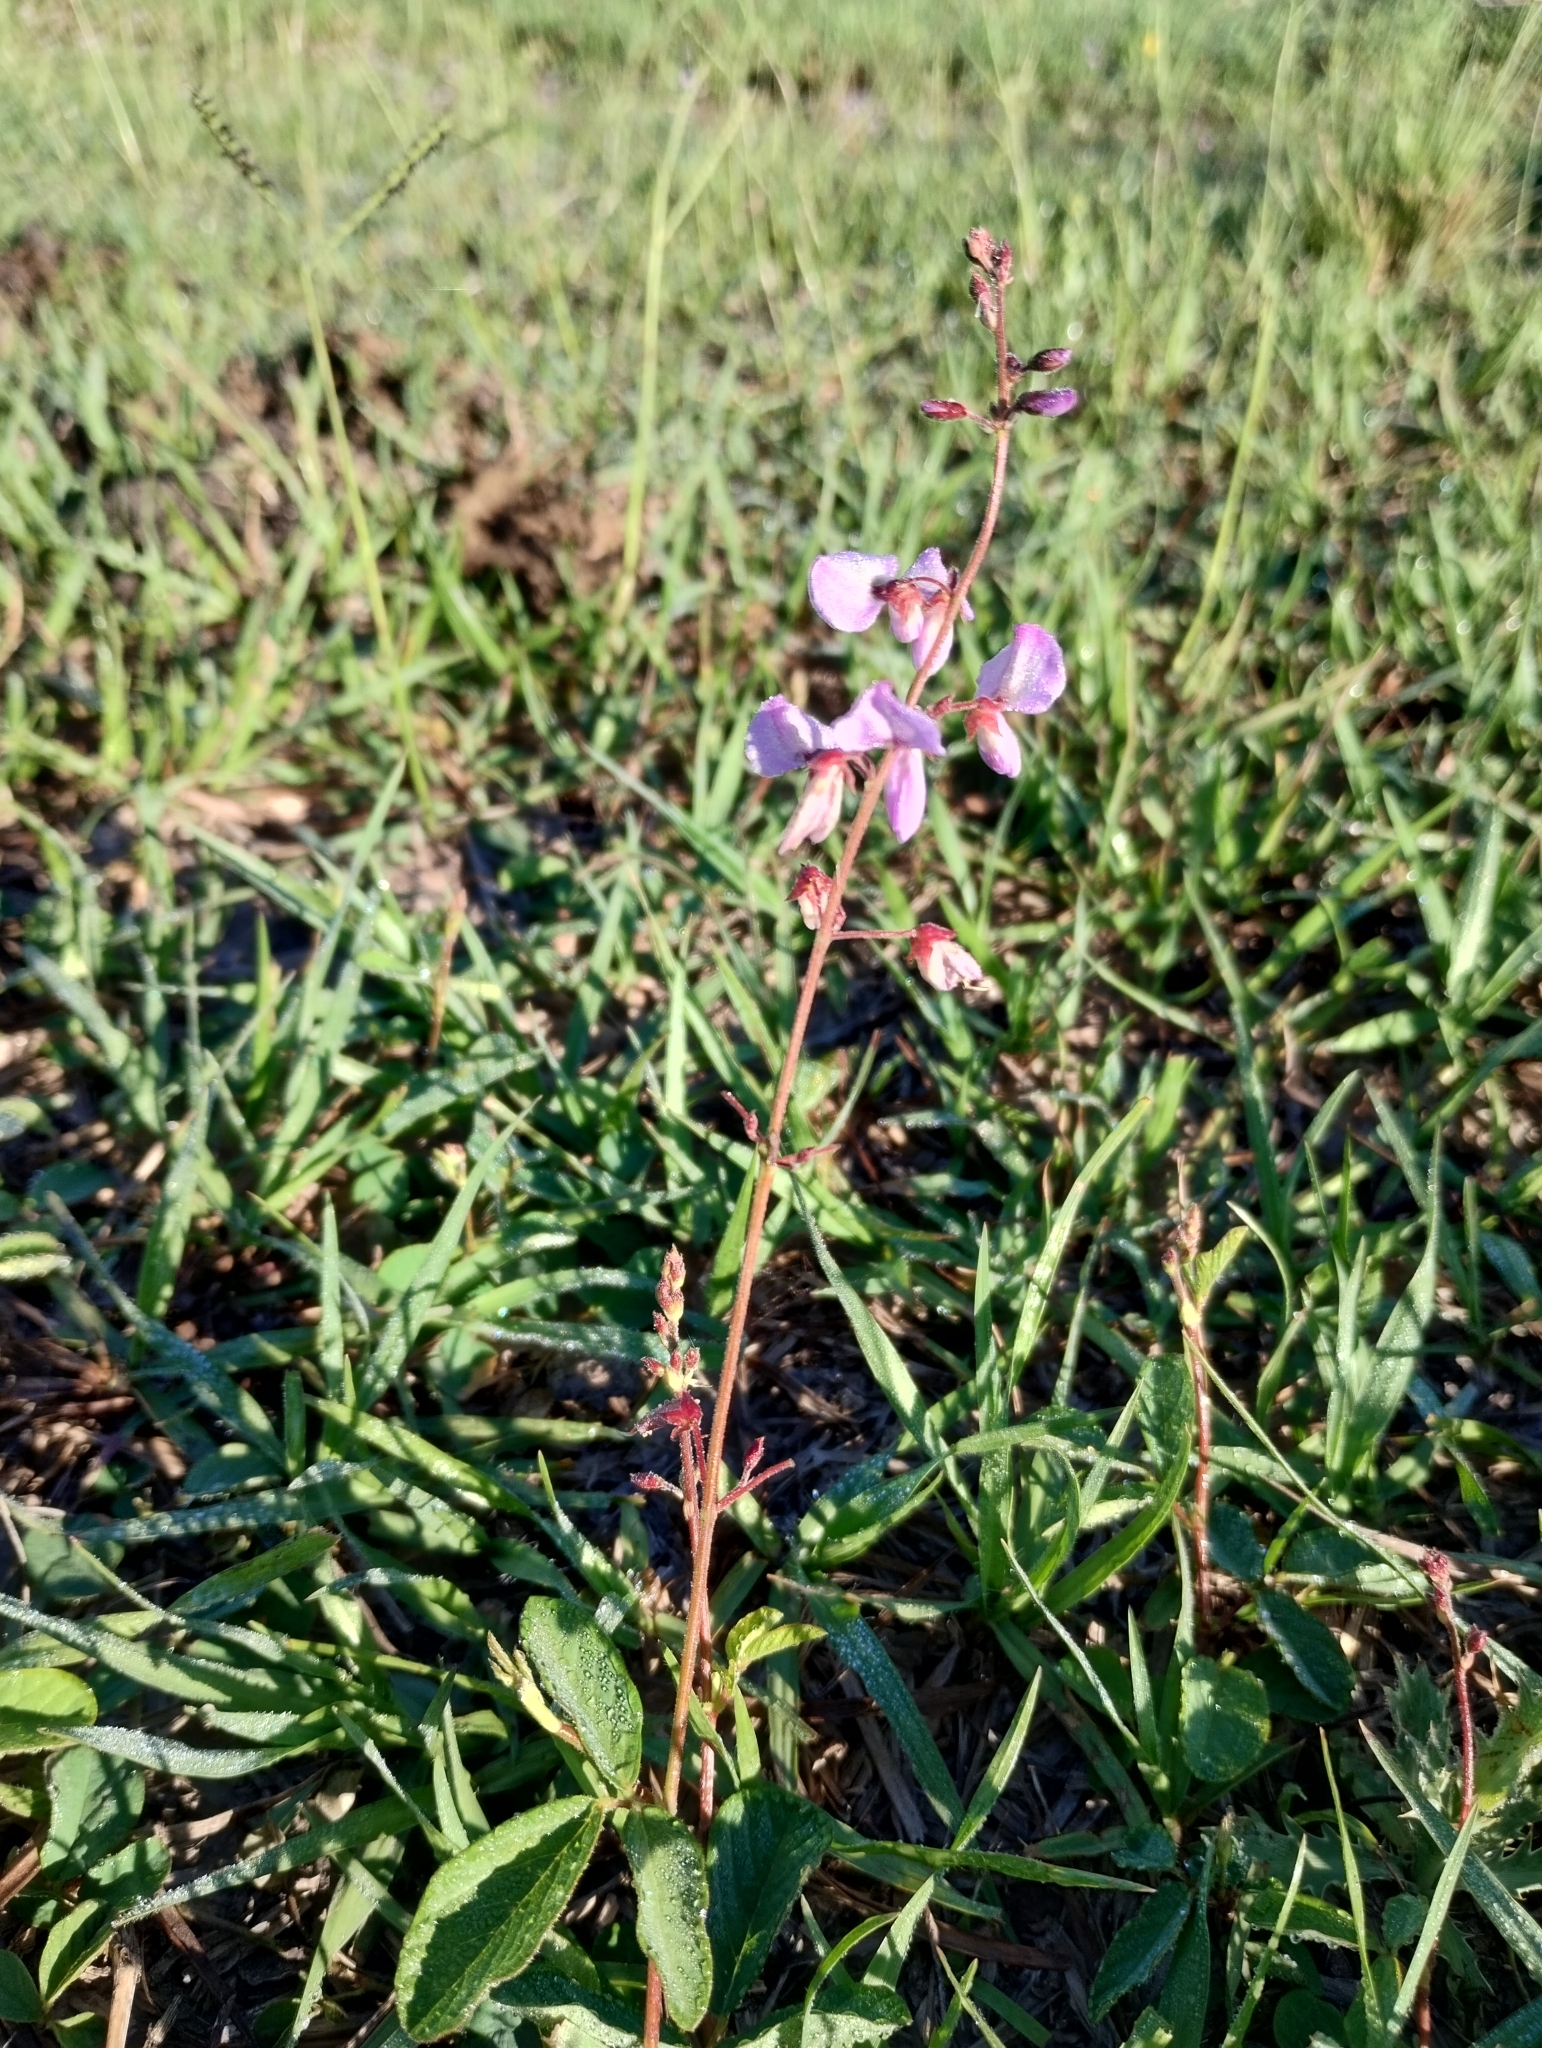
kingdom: Plantae
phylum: Tracheophyta
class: Magnoliopsida
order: Fabales
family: Fabaceae
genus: Desmodium
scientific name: Desmodium incanum
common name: Tickclover
